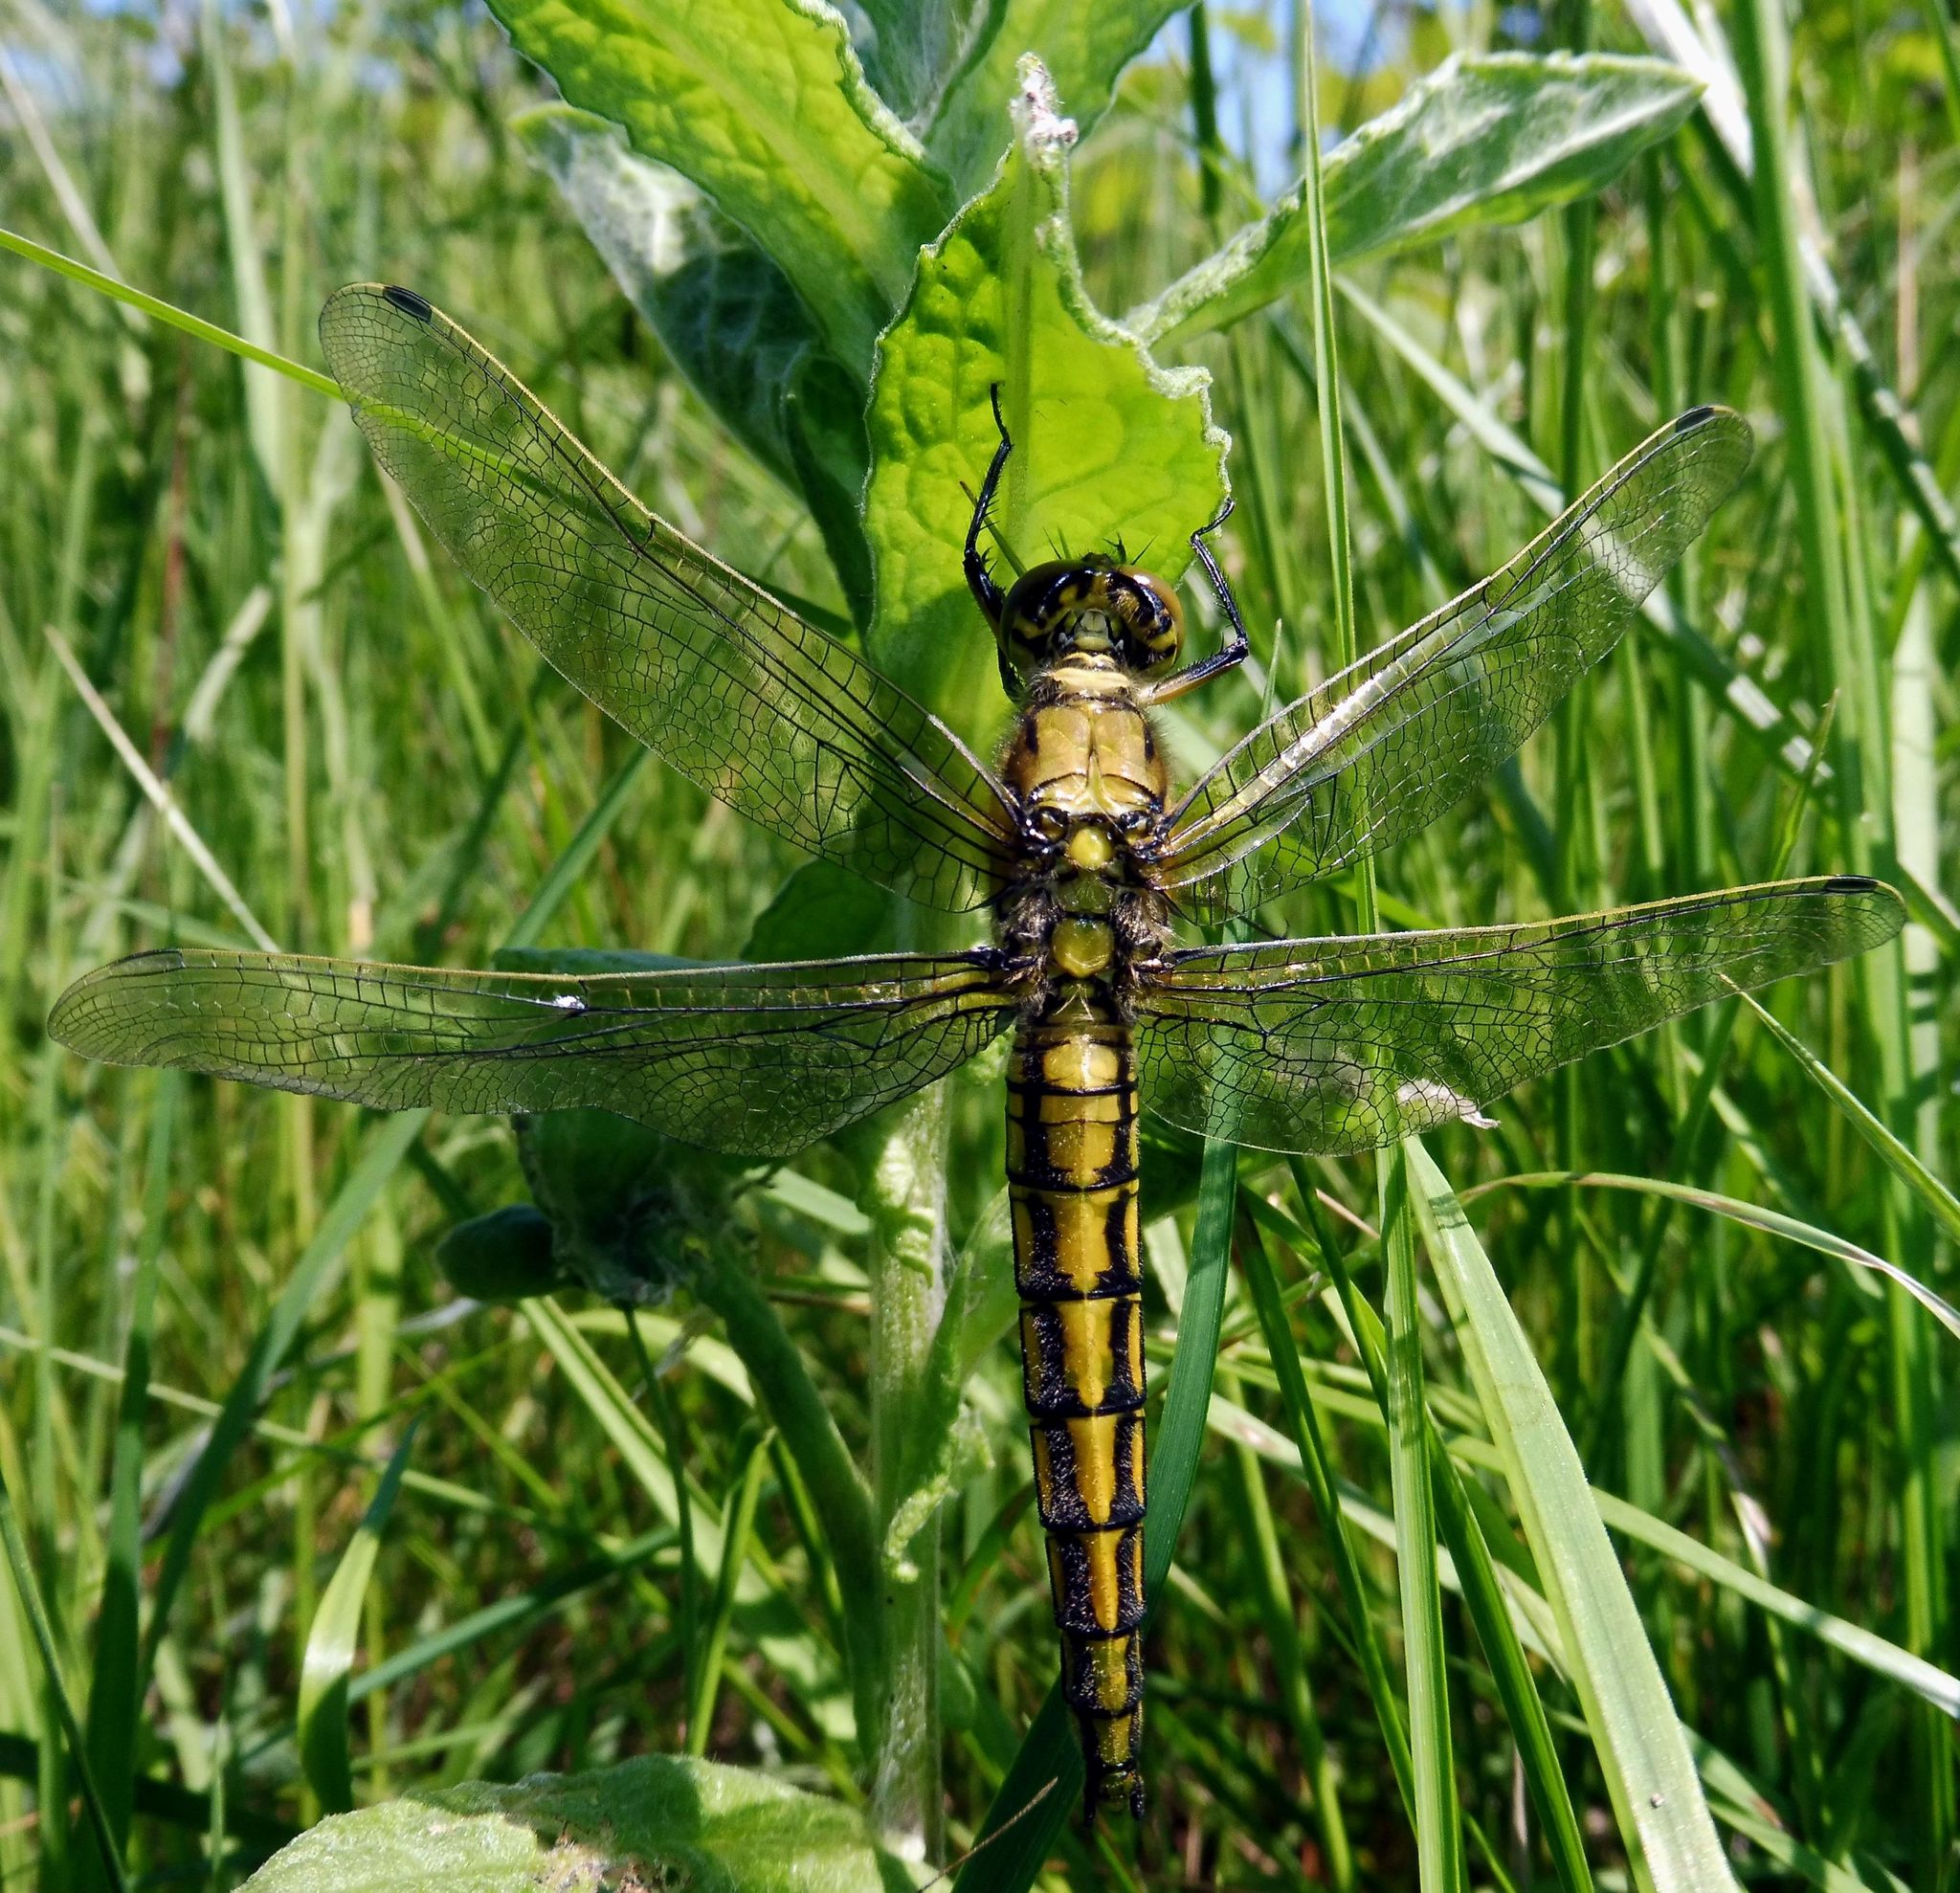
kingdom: Animalia
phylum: Arthropoda
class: Insecta
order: Odonata
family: Libellulidae
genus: Orthetrum
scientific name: Orthetrum cancellatum
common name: Black-tailed skimmer
